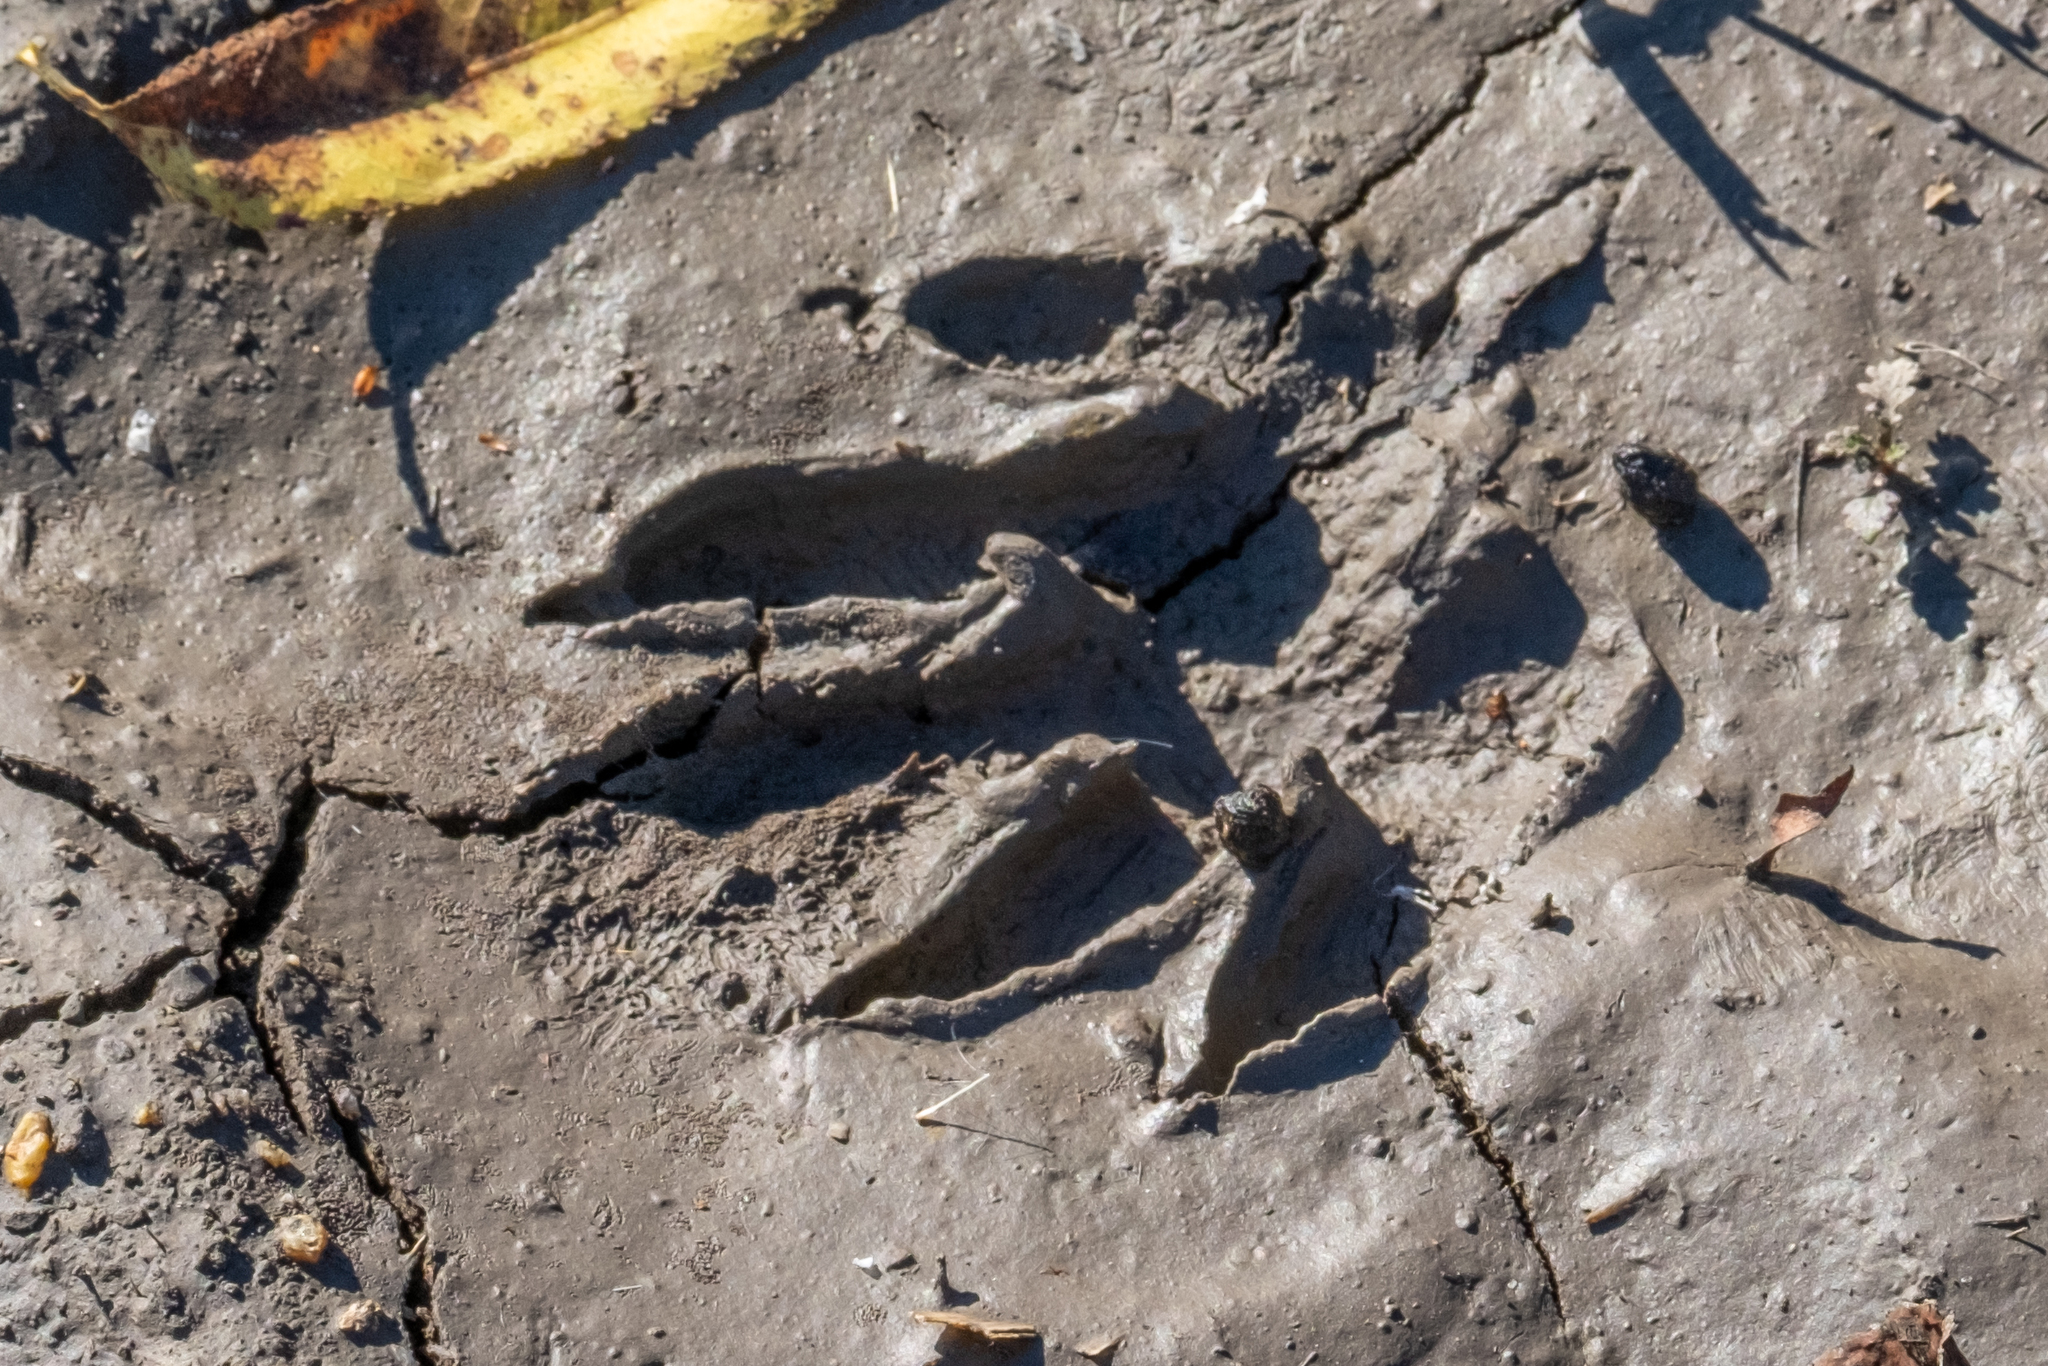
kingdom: Animalia
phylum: Chordata
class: Mammalia
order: Carnivora
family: Procyonidae
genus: Procyon
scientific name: Procyon lotor
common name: Raccoon
